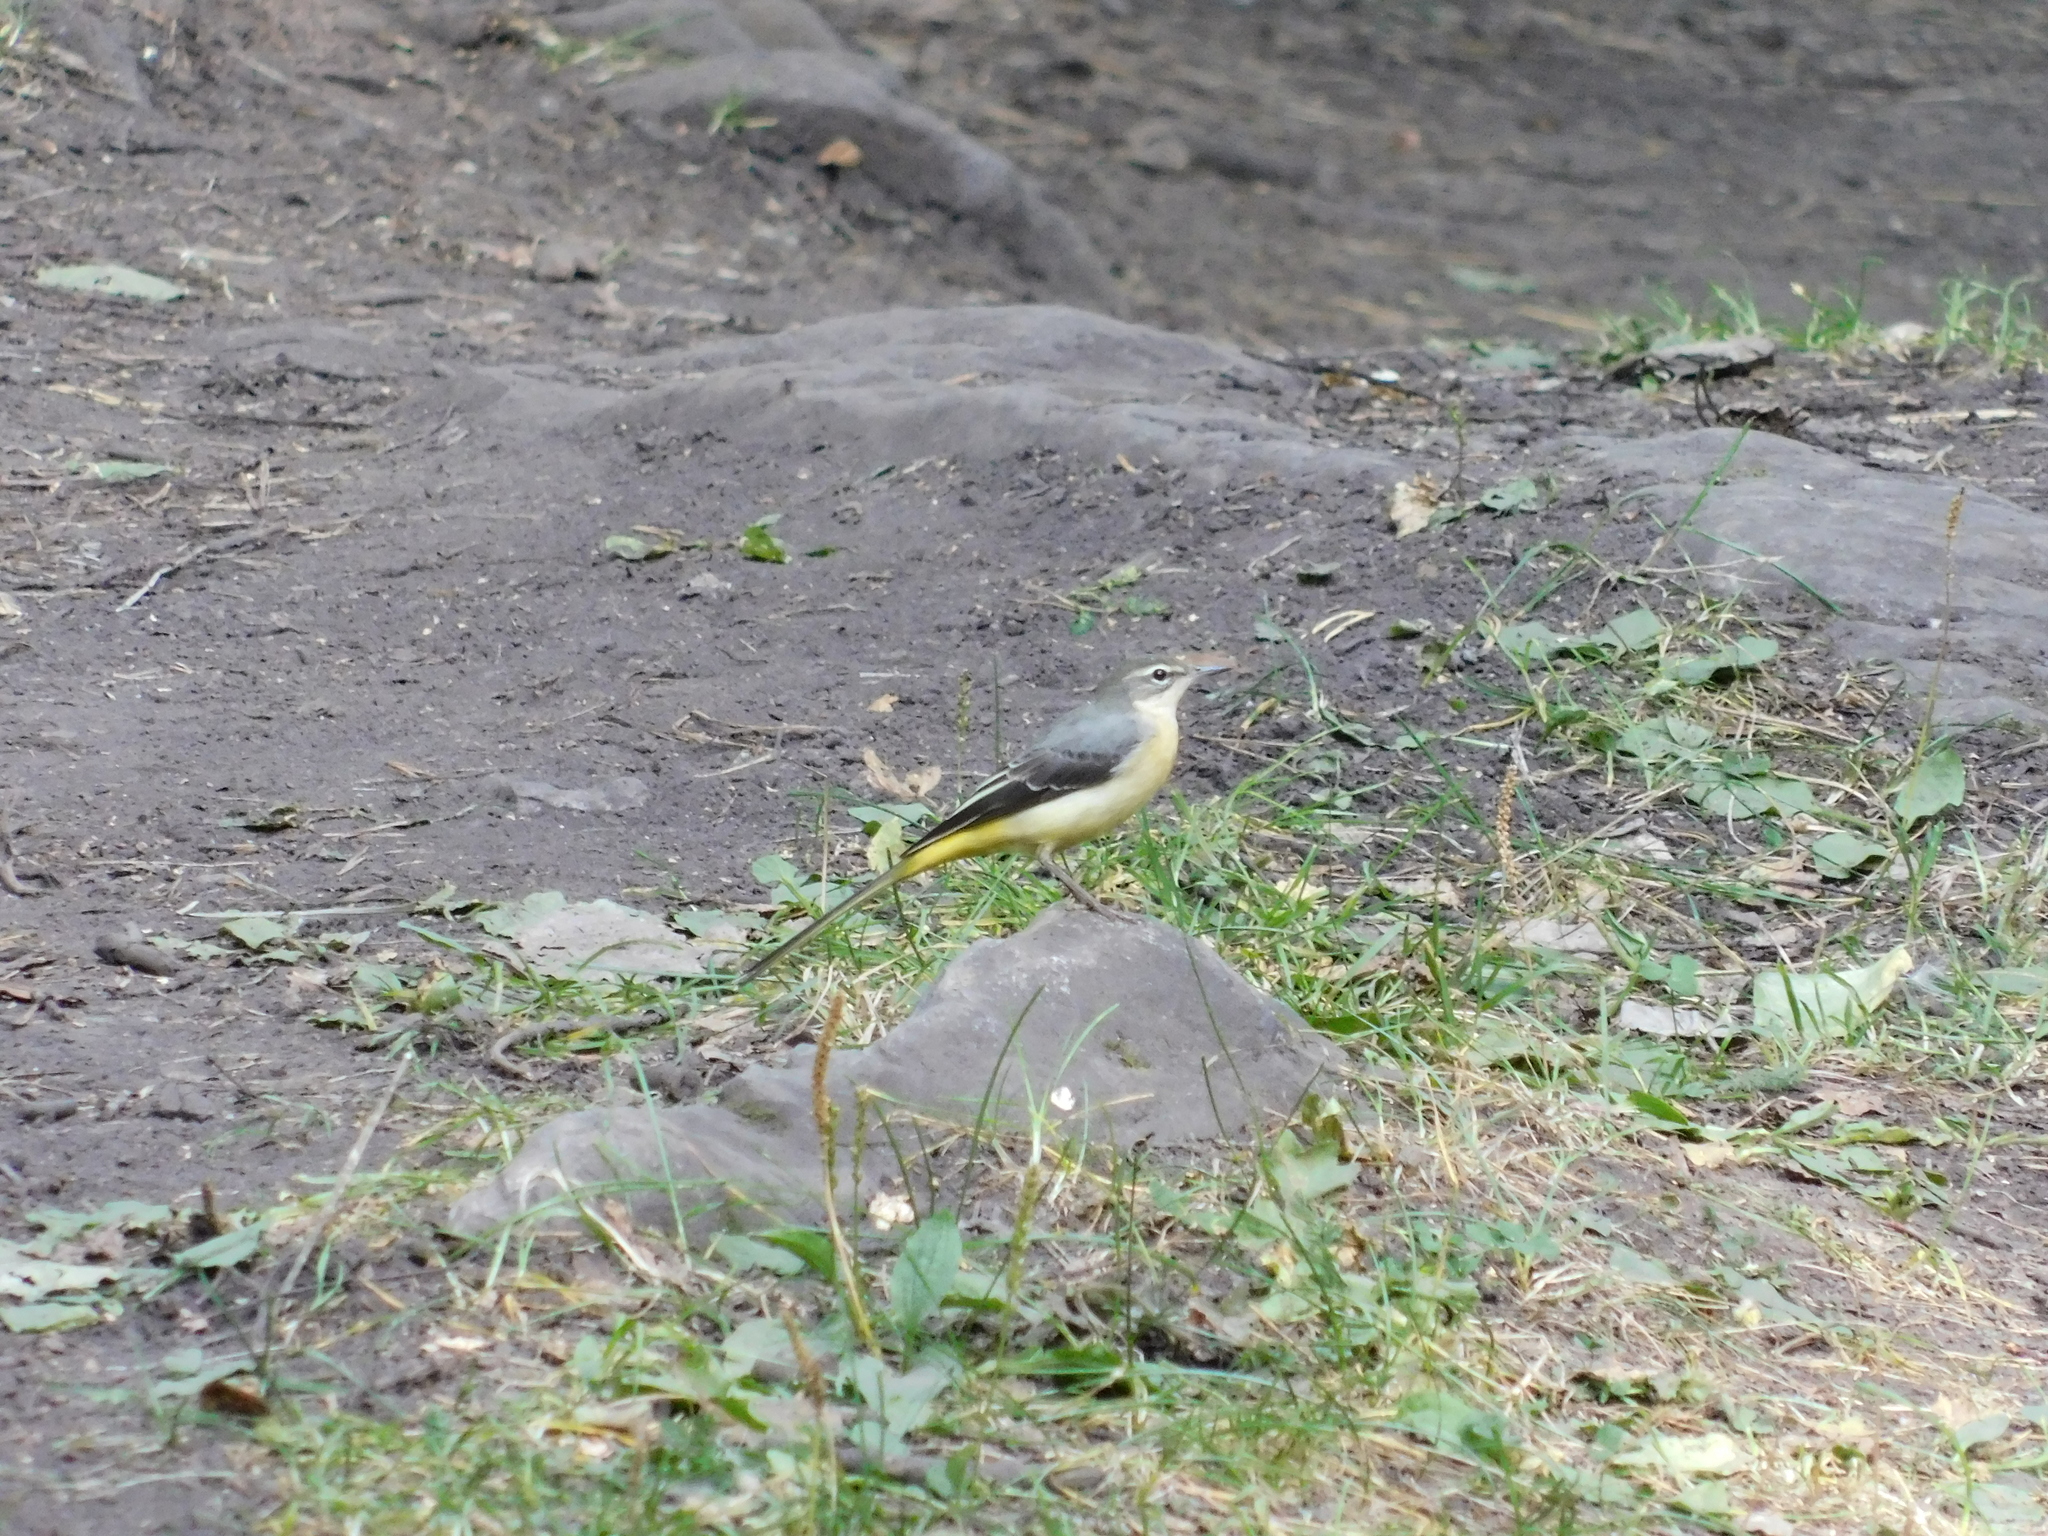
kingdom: Animalia
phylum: Chordata
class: Aves
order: Passeriformes
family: Motacillidae
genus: Motacilla
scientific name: Motacilla cinerea
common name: Grey wagtail
